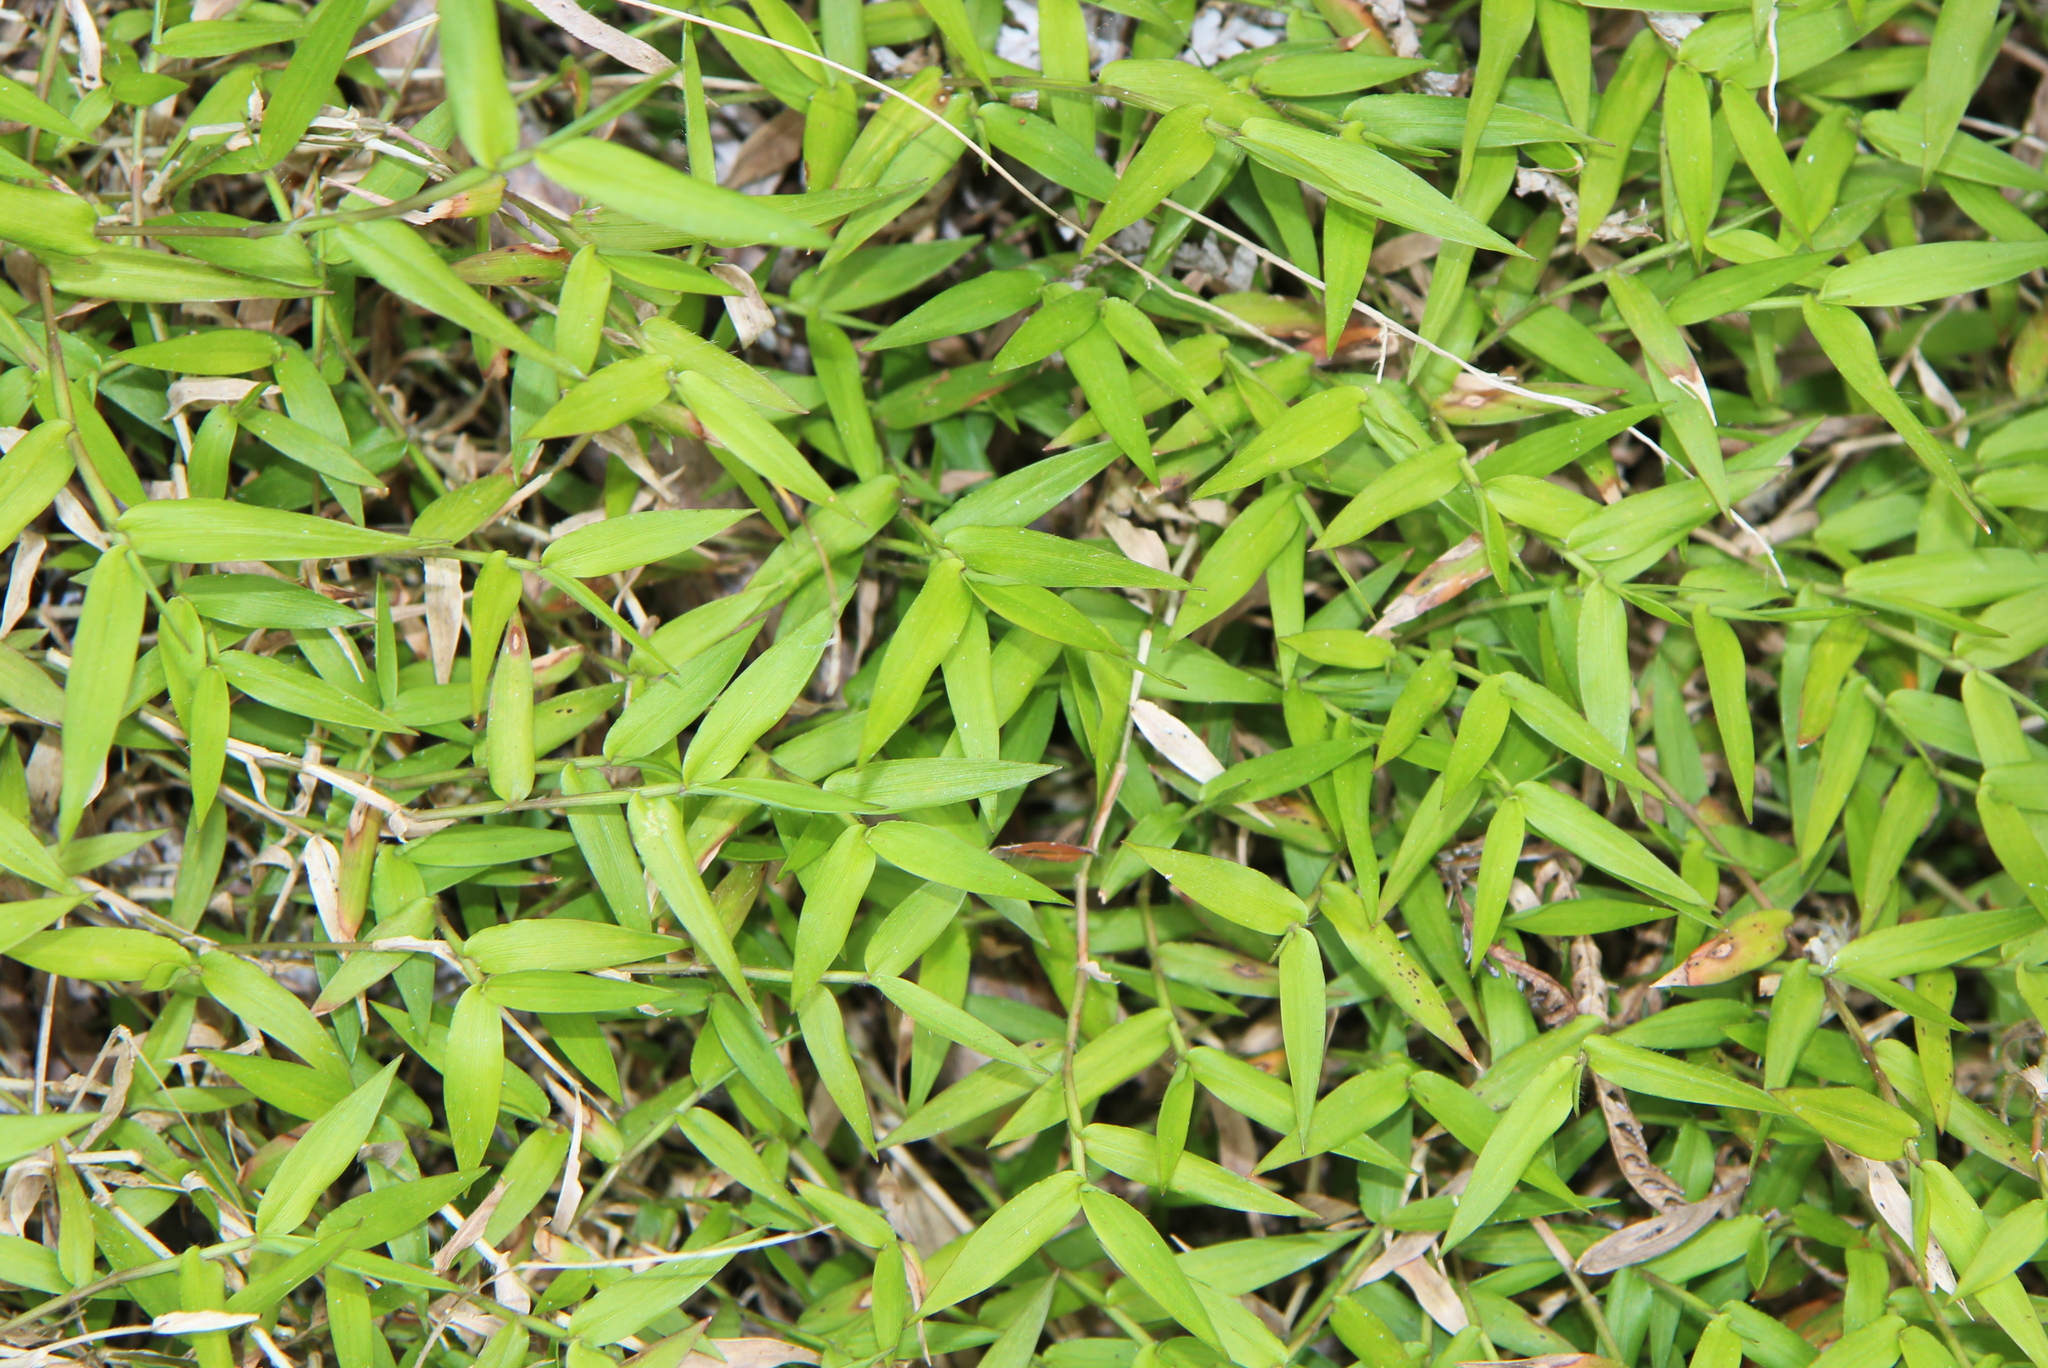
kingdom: Plantae
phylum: Tracheophyta
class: Liliopsida
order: Poales
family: Poaceae
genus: Oplismenus
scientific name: Oplismenus hirtellus
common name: Basketgrass
